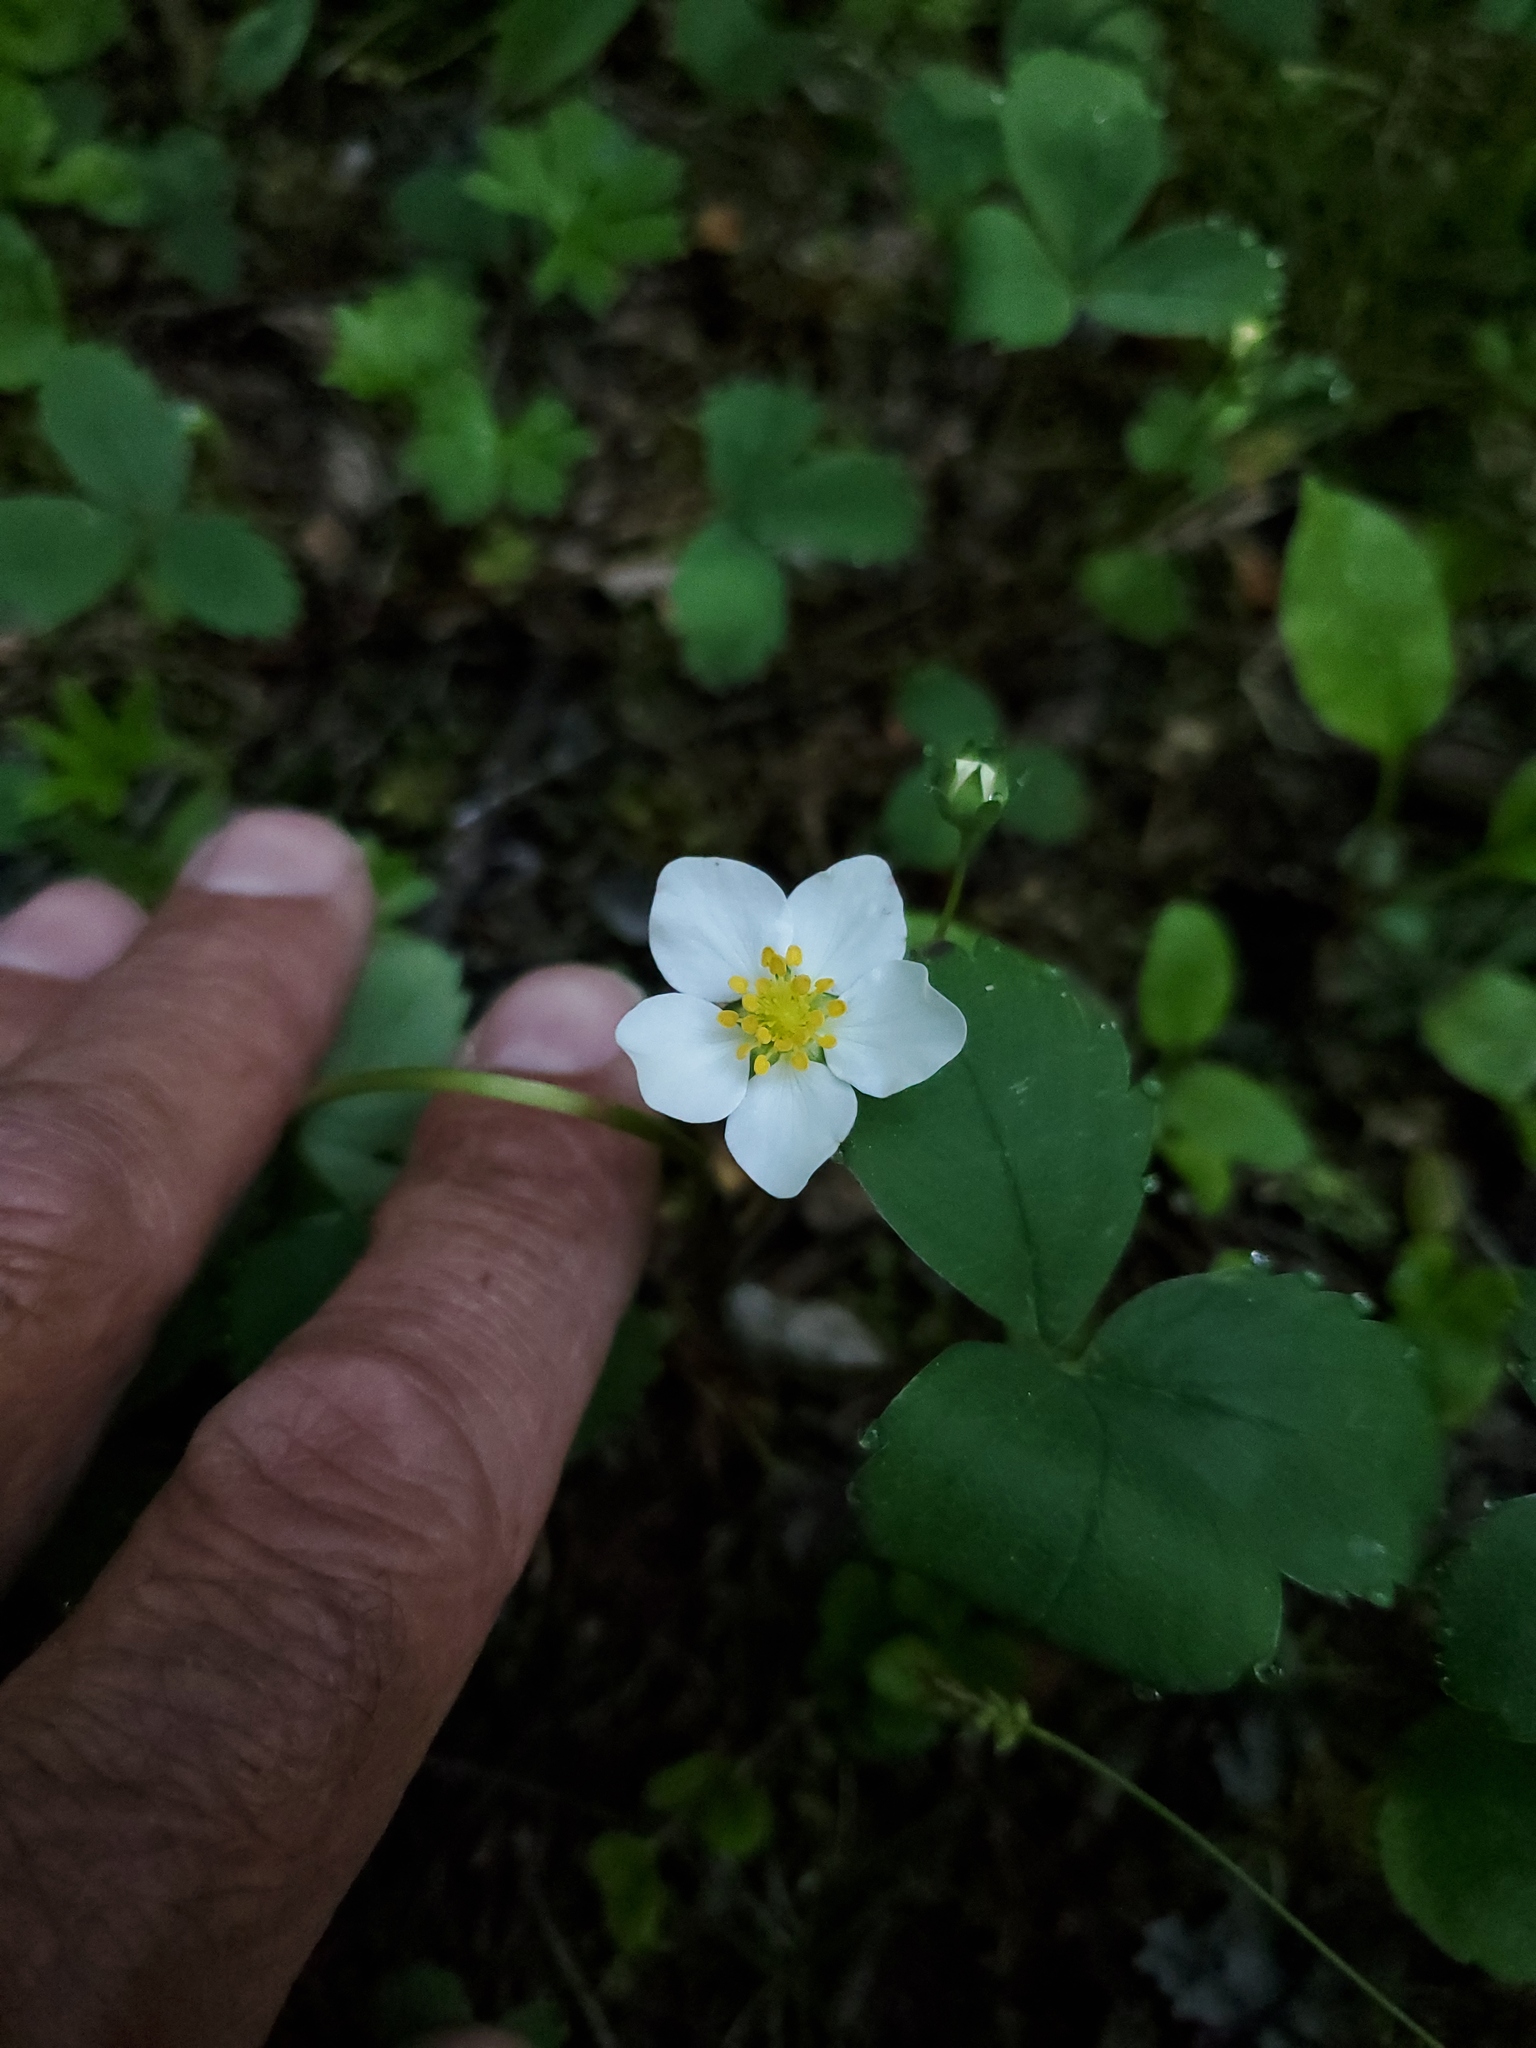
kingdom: Plantae
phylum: Tracheophyta
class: Magnoliopsida
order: Rosales
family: Rosaceae
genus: Fragaria
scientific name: Fragaria virginiana
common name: Thickleaved wild strawberry
